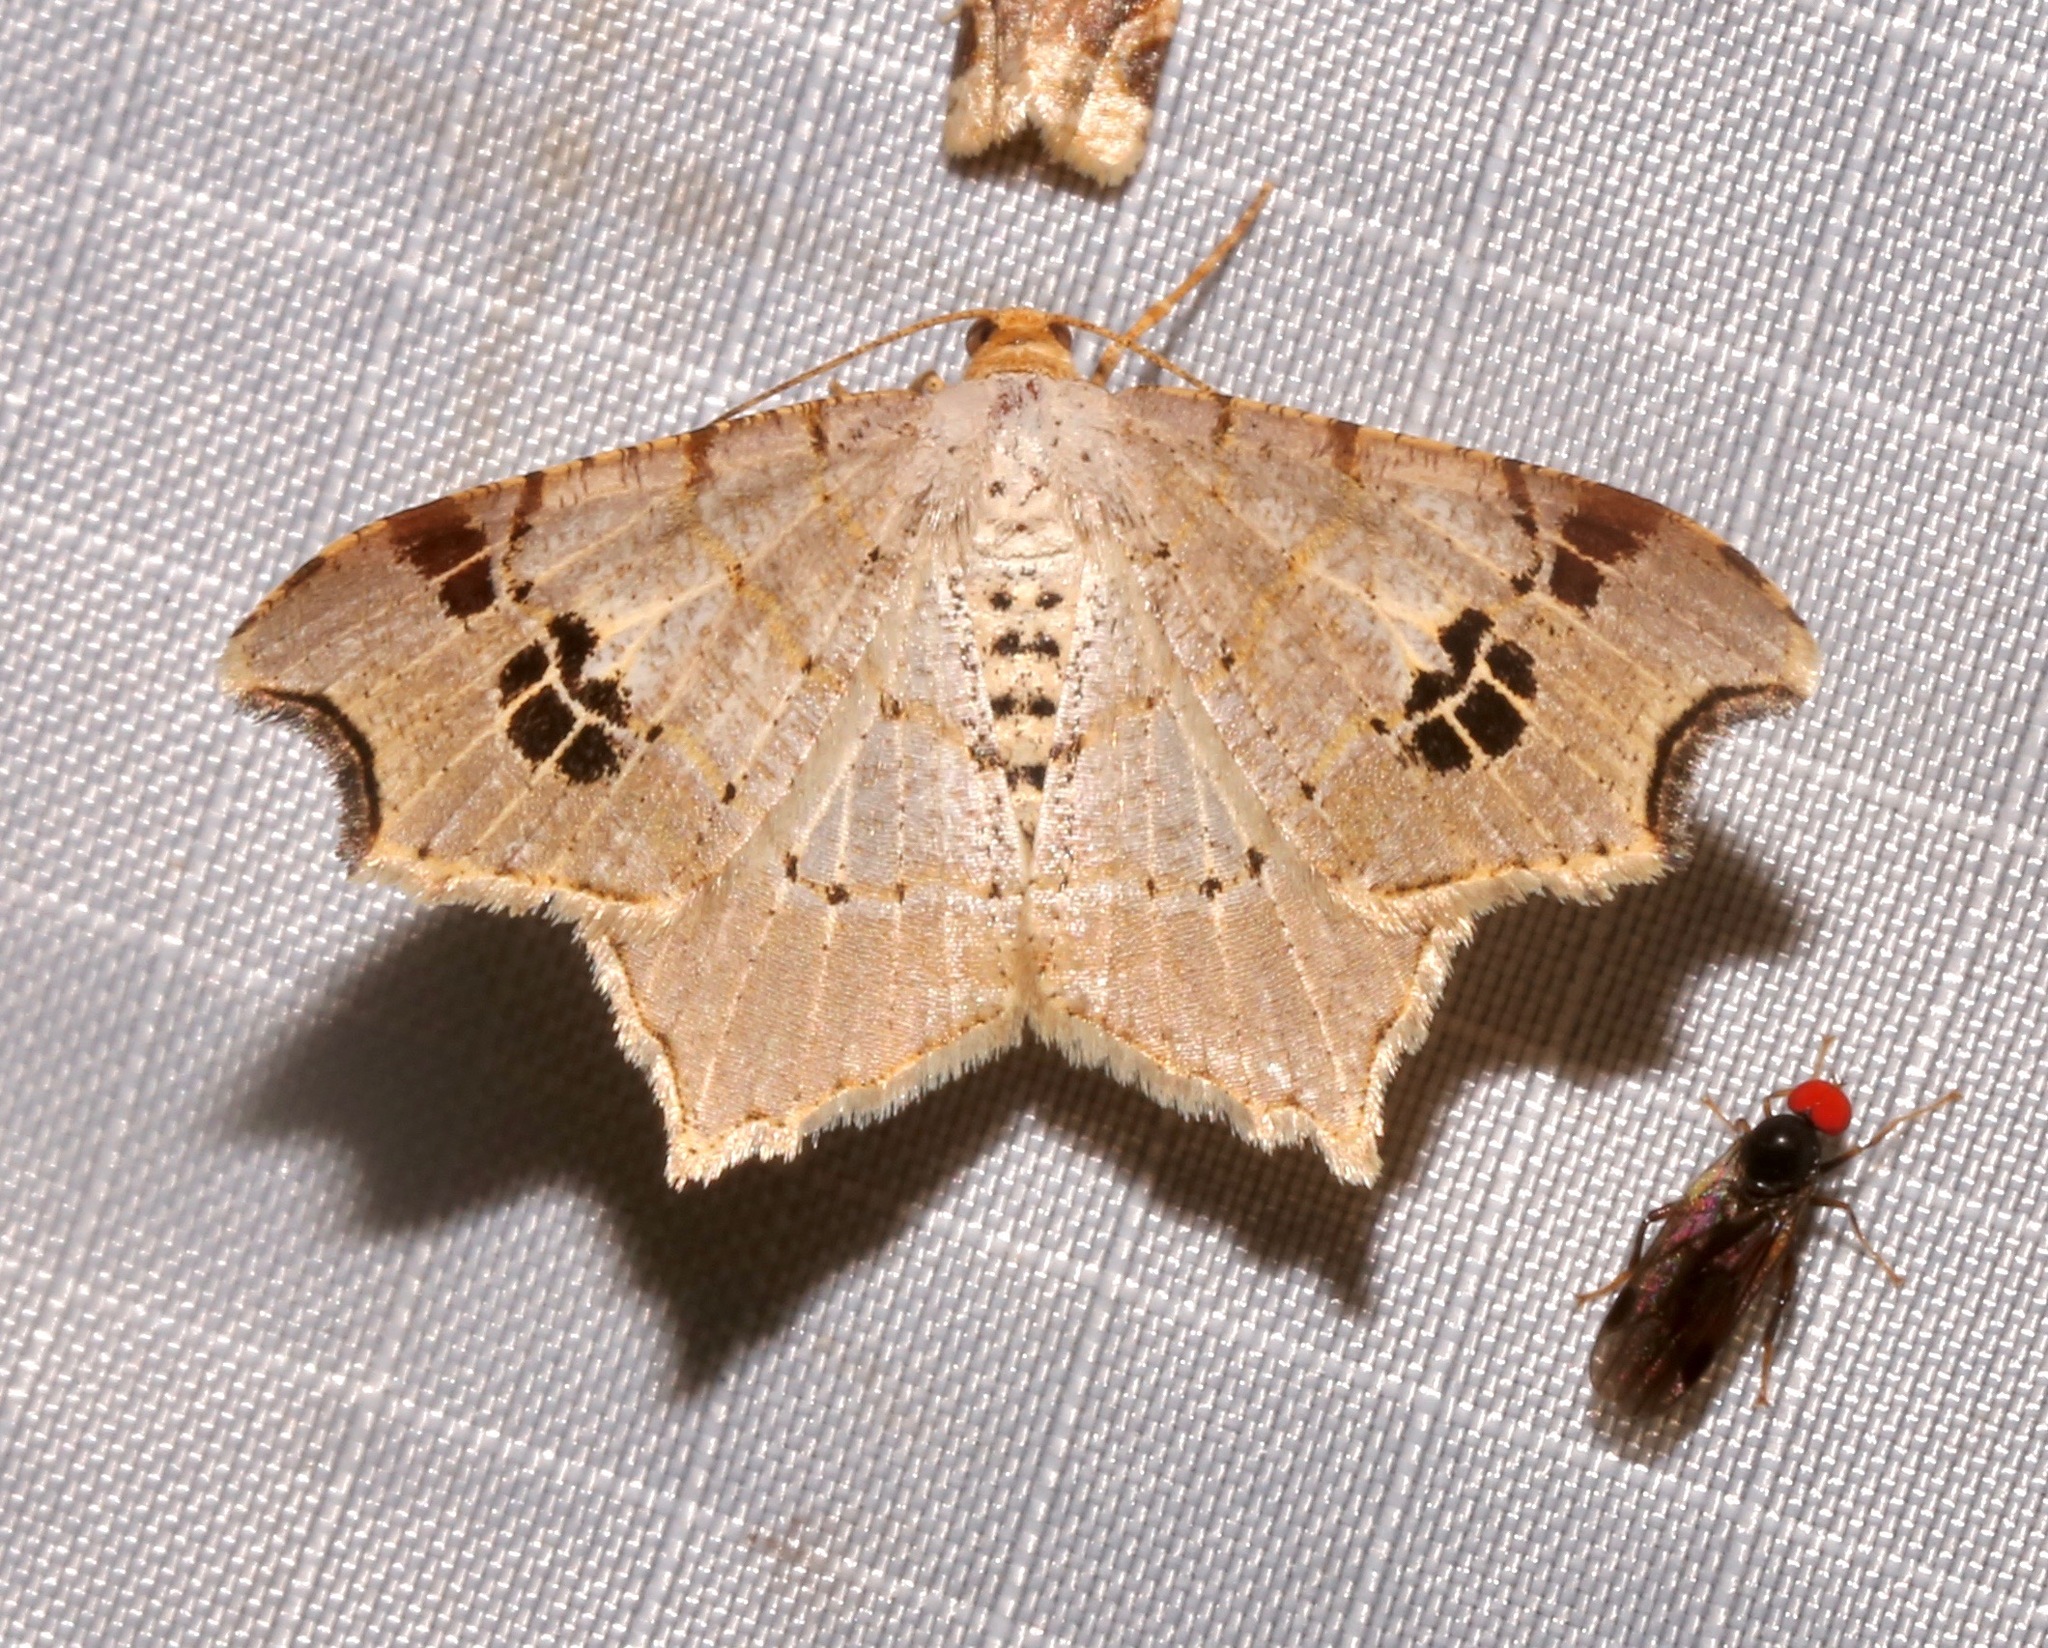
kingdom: Animalia
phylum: Arthropoda
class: Insecta
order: Lepidoptera
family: Geometridae
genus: Macaria
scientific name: Macaria promiscuata
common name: Promiscuous angle
